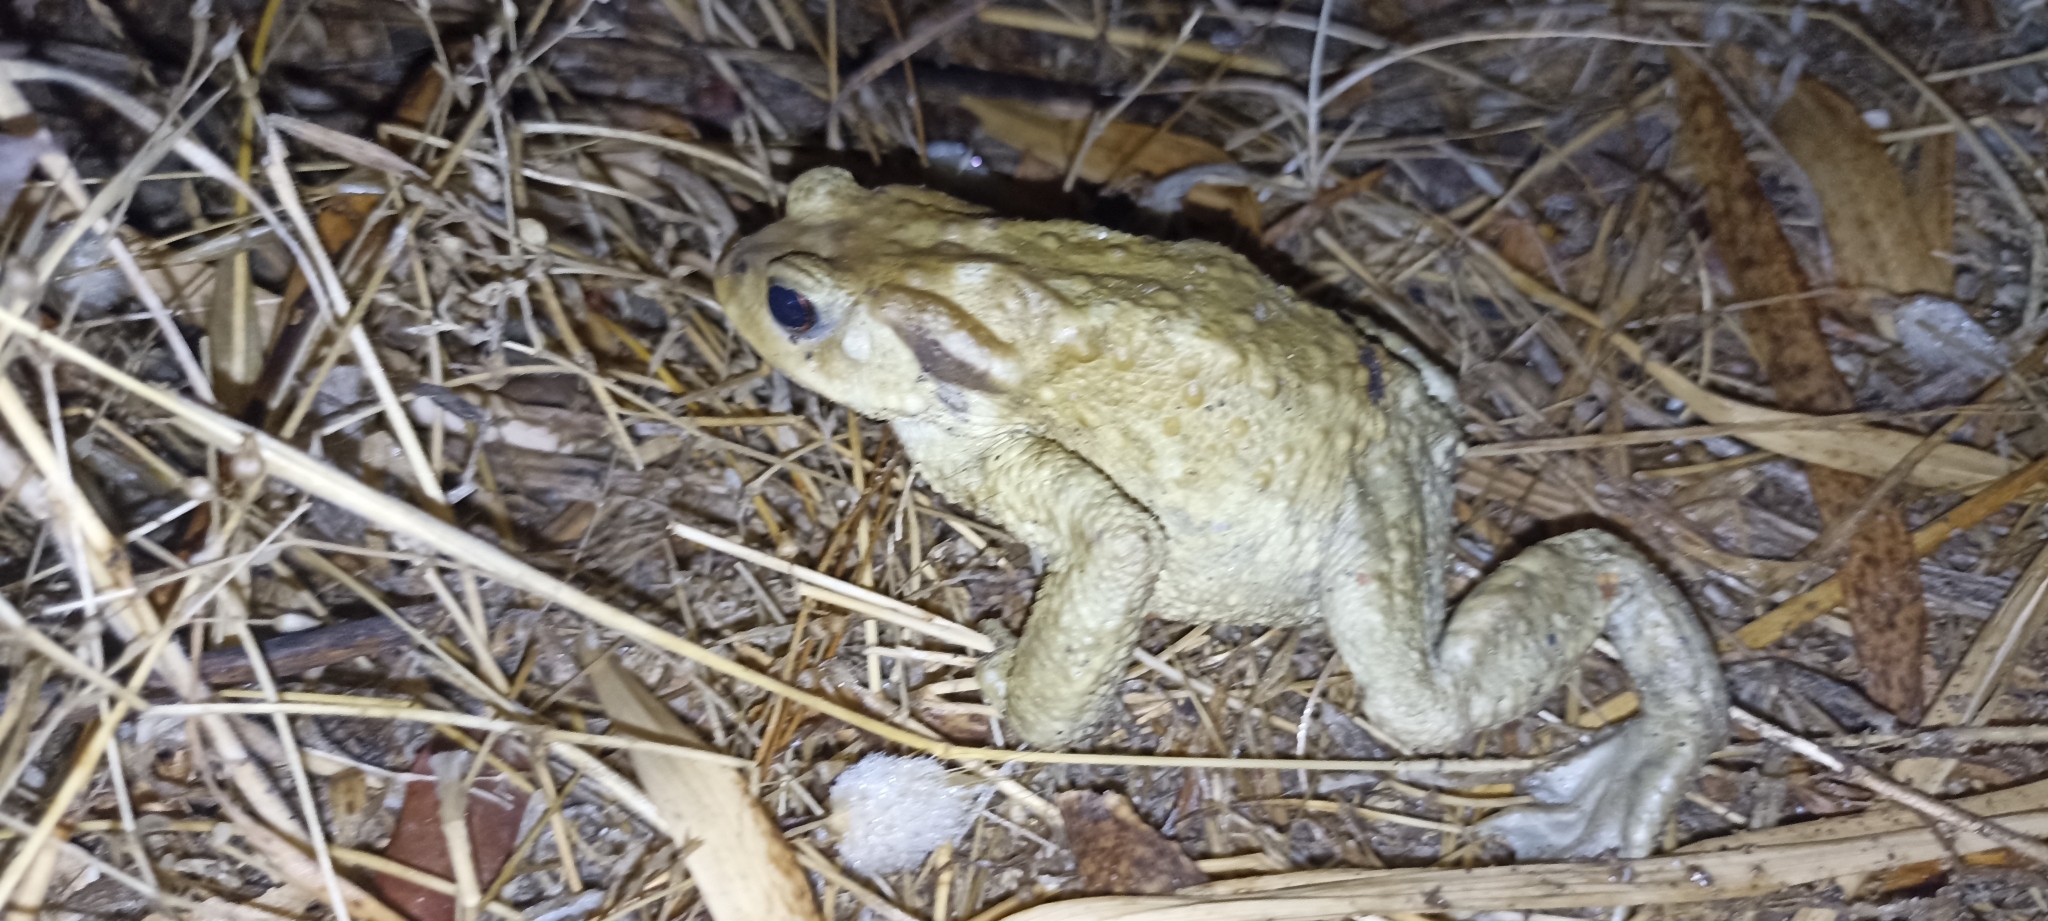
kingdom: Animalia
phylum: Chordata
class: Amphibia
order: Anura
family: Bufonidae
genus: Bufo
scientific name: Bufo spinosus
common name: Western common toad
